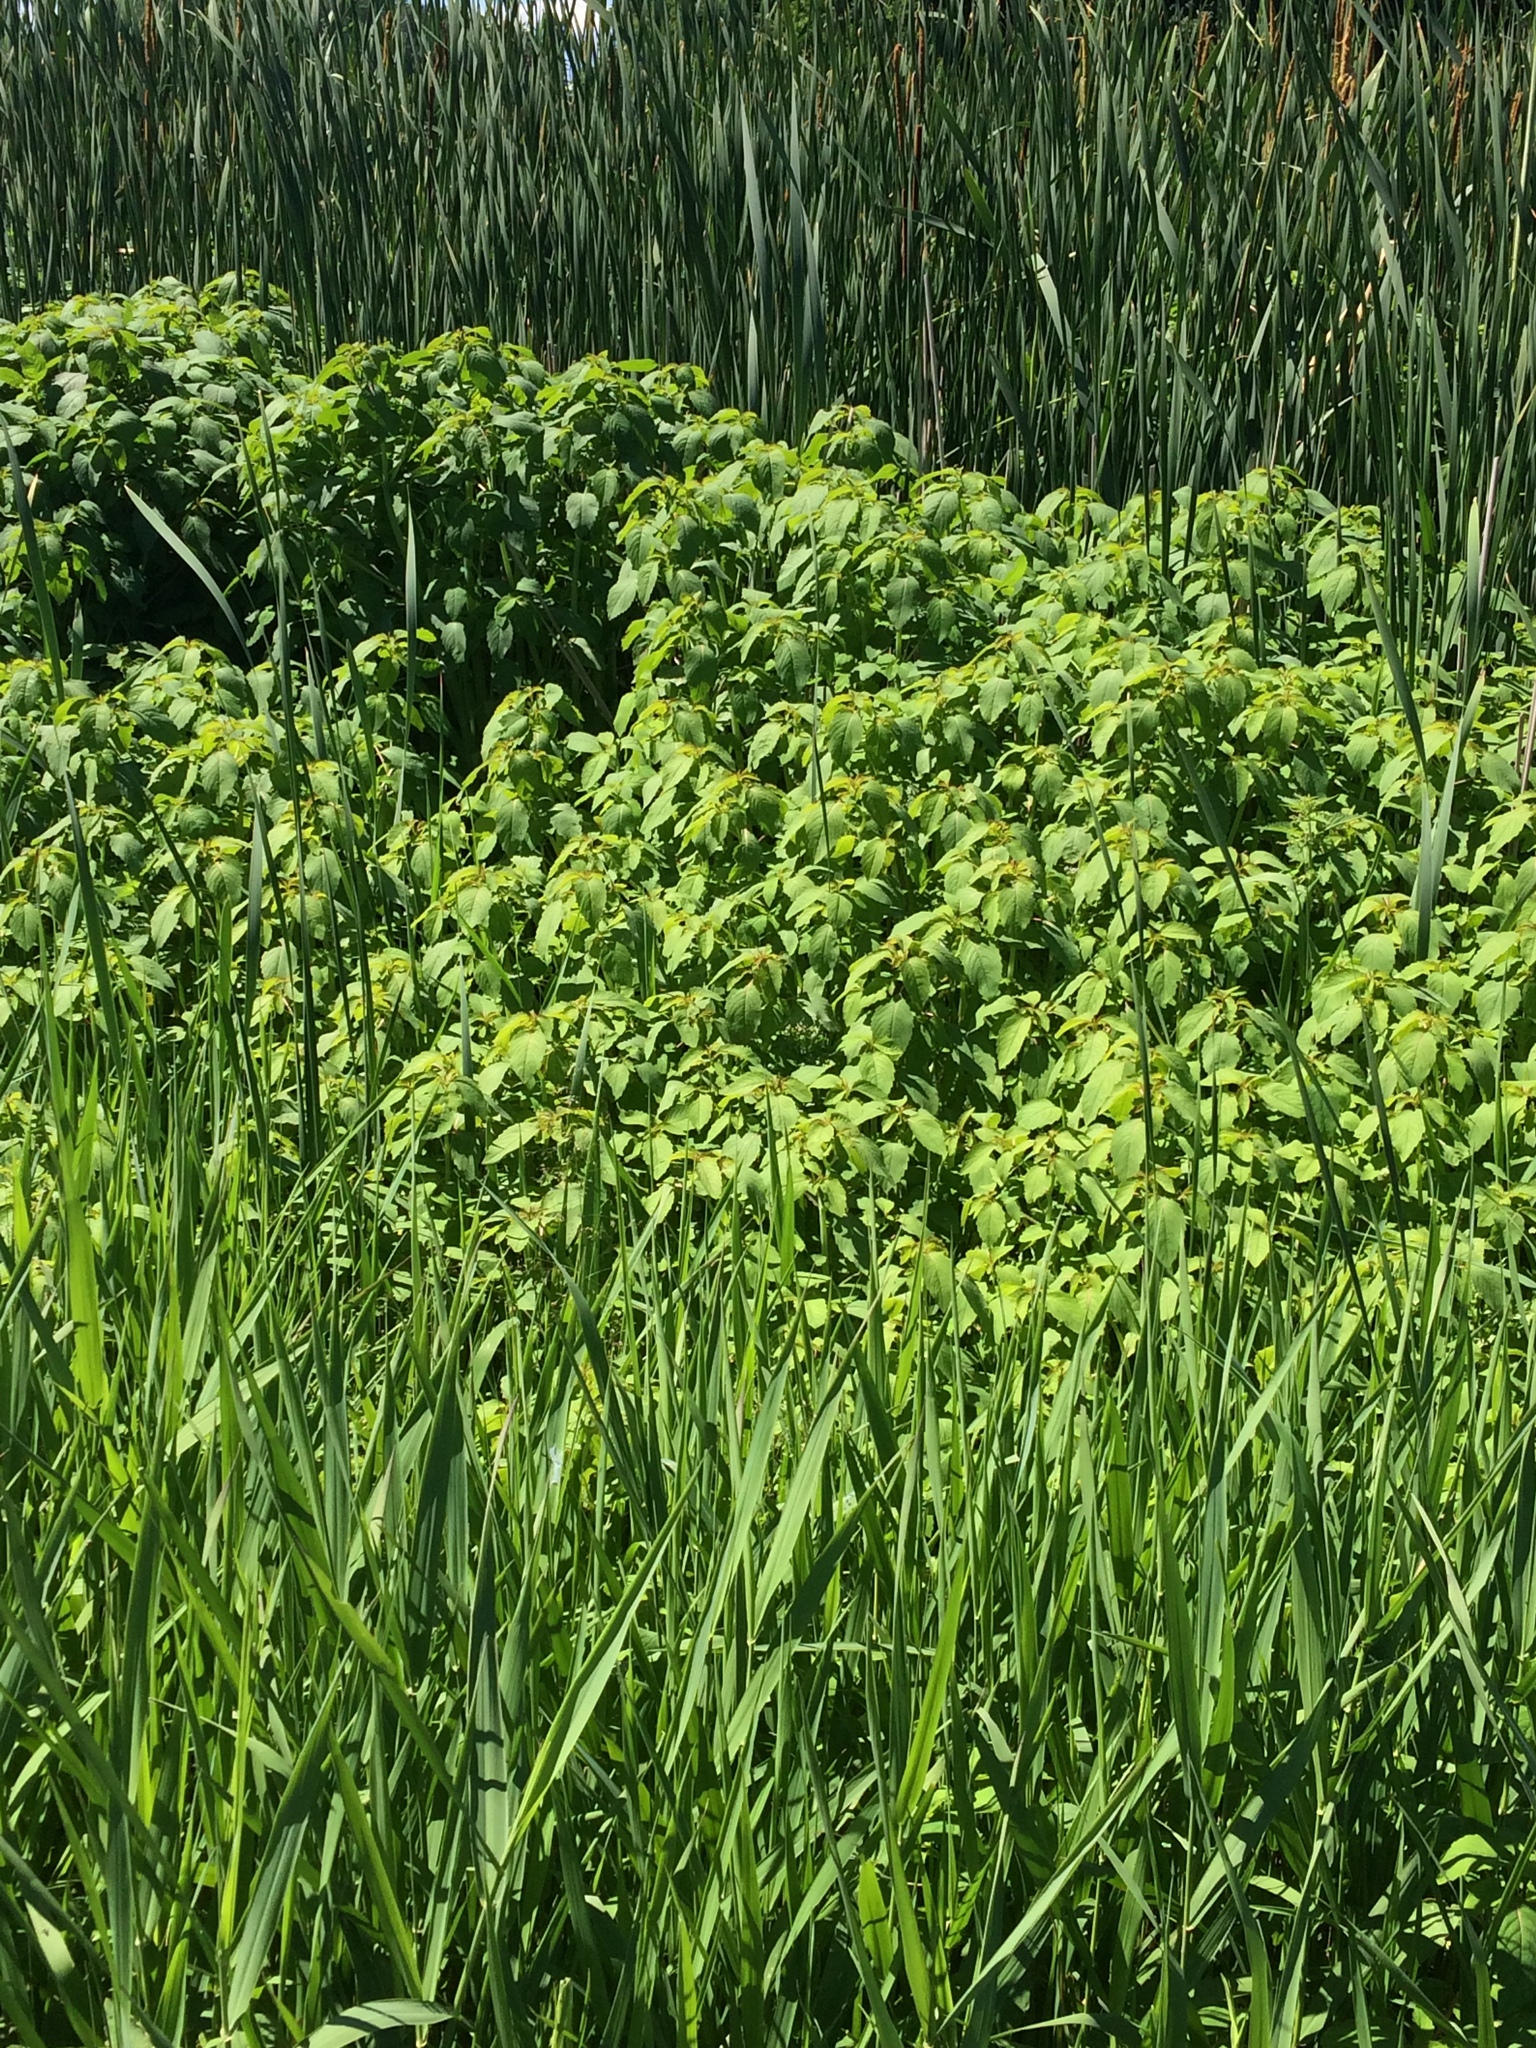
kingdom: Plantae
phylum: Tracheophyta
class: Magnoliopsida
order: Ericales
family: Balsaminaceae
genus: Impatiens
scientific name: Impatiens capensis
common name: Orange balsam
